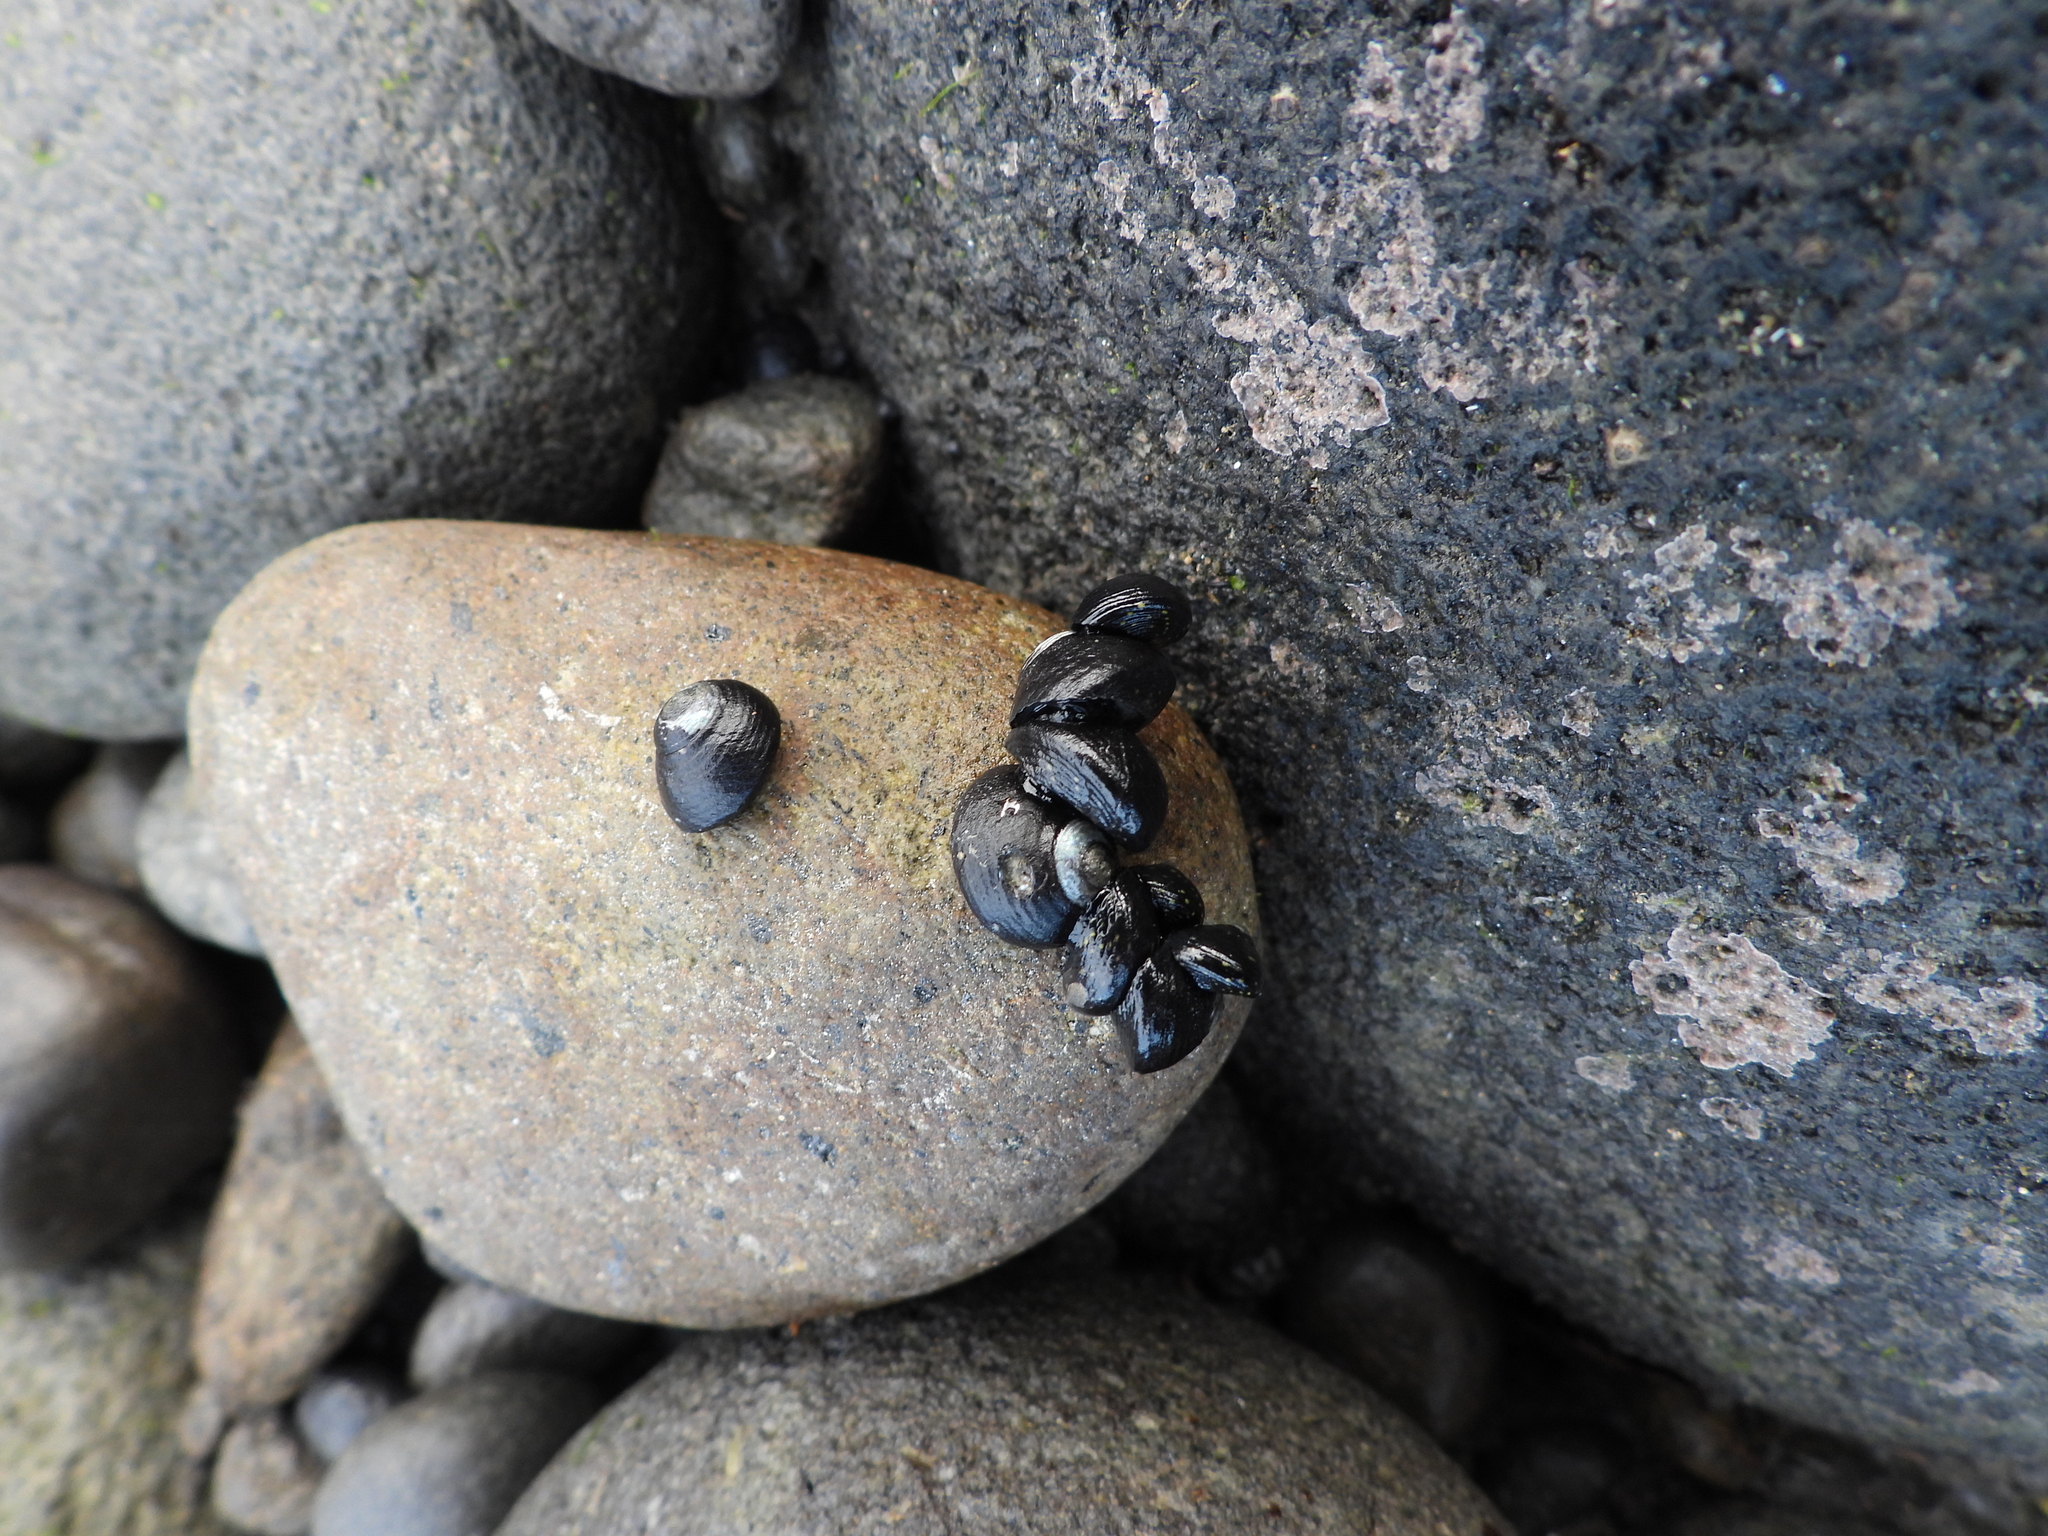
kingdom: Animalia
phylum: Mollusca
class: Gastropoda
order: Trochida
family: Trochidae
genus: Diloma
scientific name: Diloma aridum
